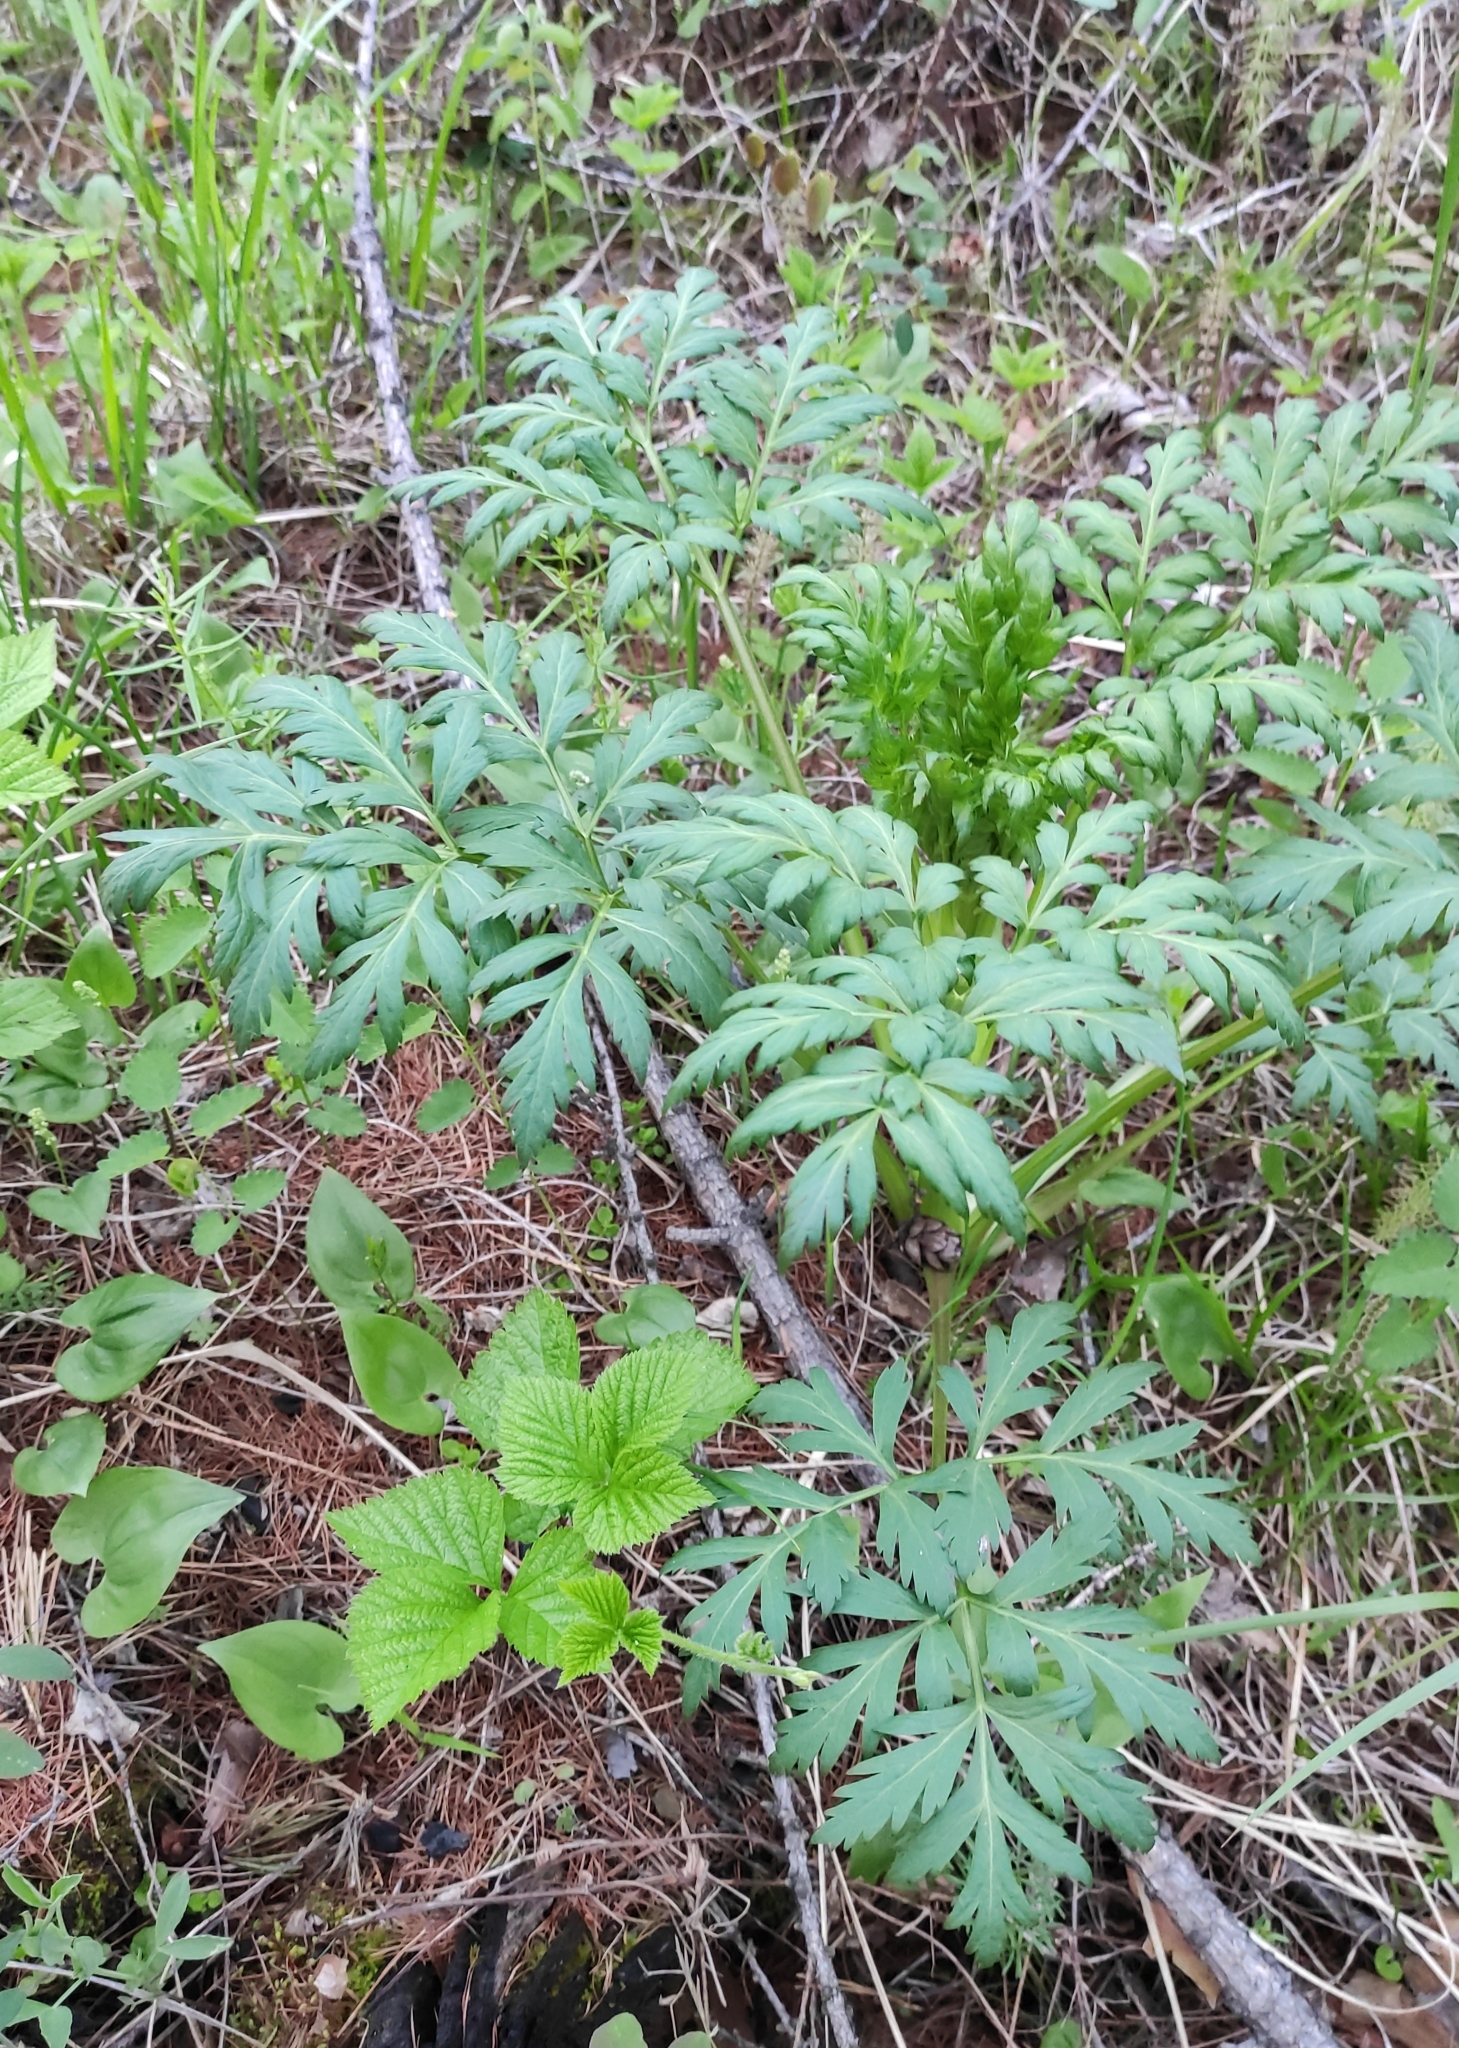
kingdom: Plantae
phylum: Tracheophyta
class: Magnoliopsida
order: Apiales
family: Apiaceae
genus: Pleurospermum
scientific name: Pleurospermum uralense
